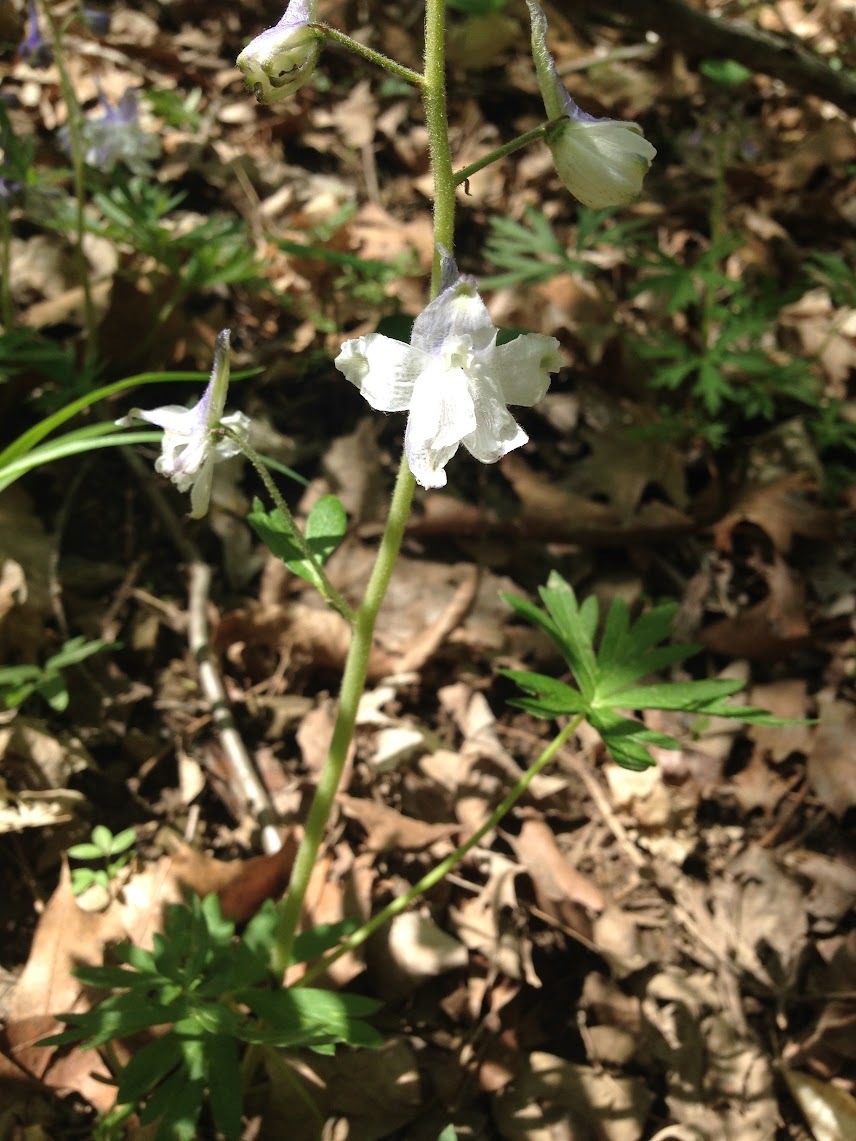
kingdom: Plantae
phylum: Tracheophyta
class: Magnoliopsida
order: Ranunculales
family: Ranunculaceae
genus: Delphinium
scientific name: Delphinium tricorne
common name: Dwarf larkspur
